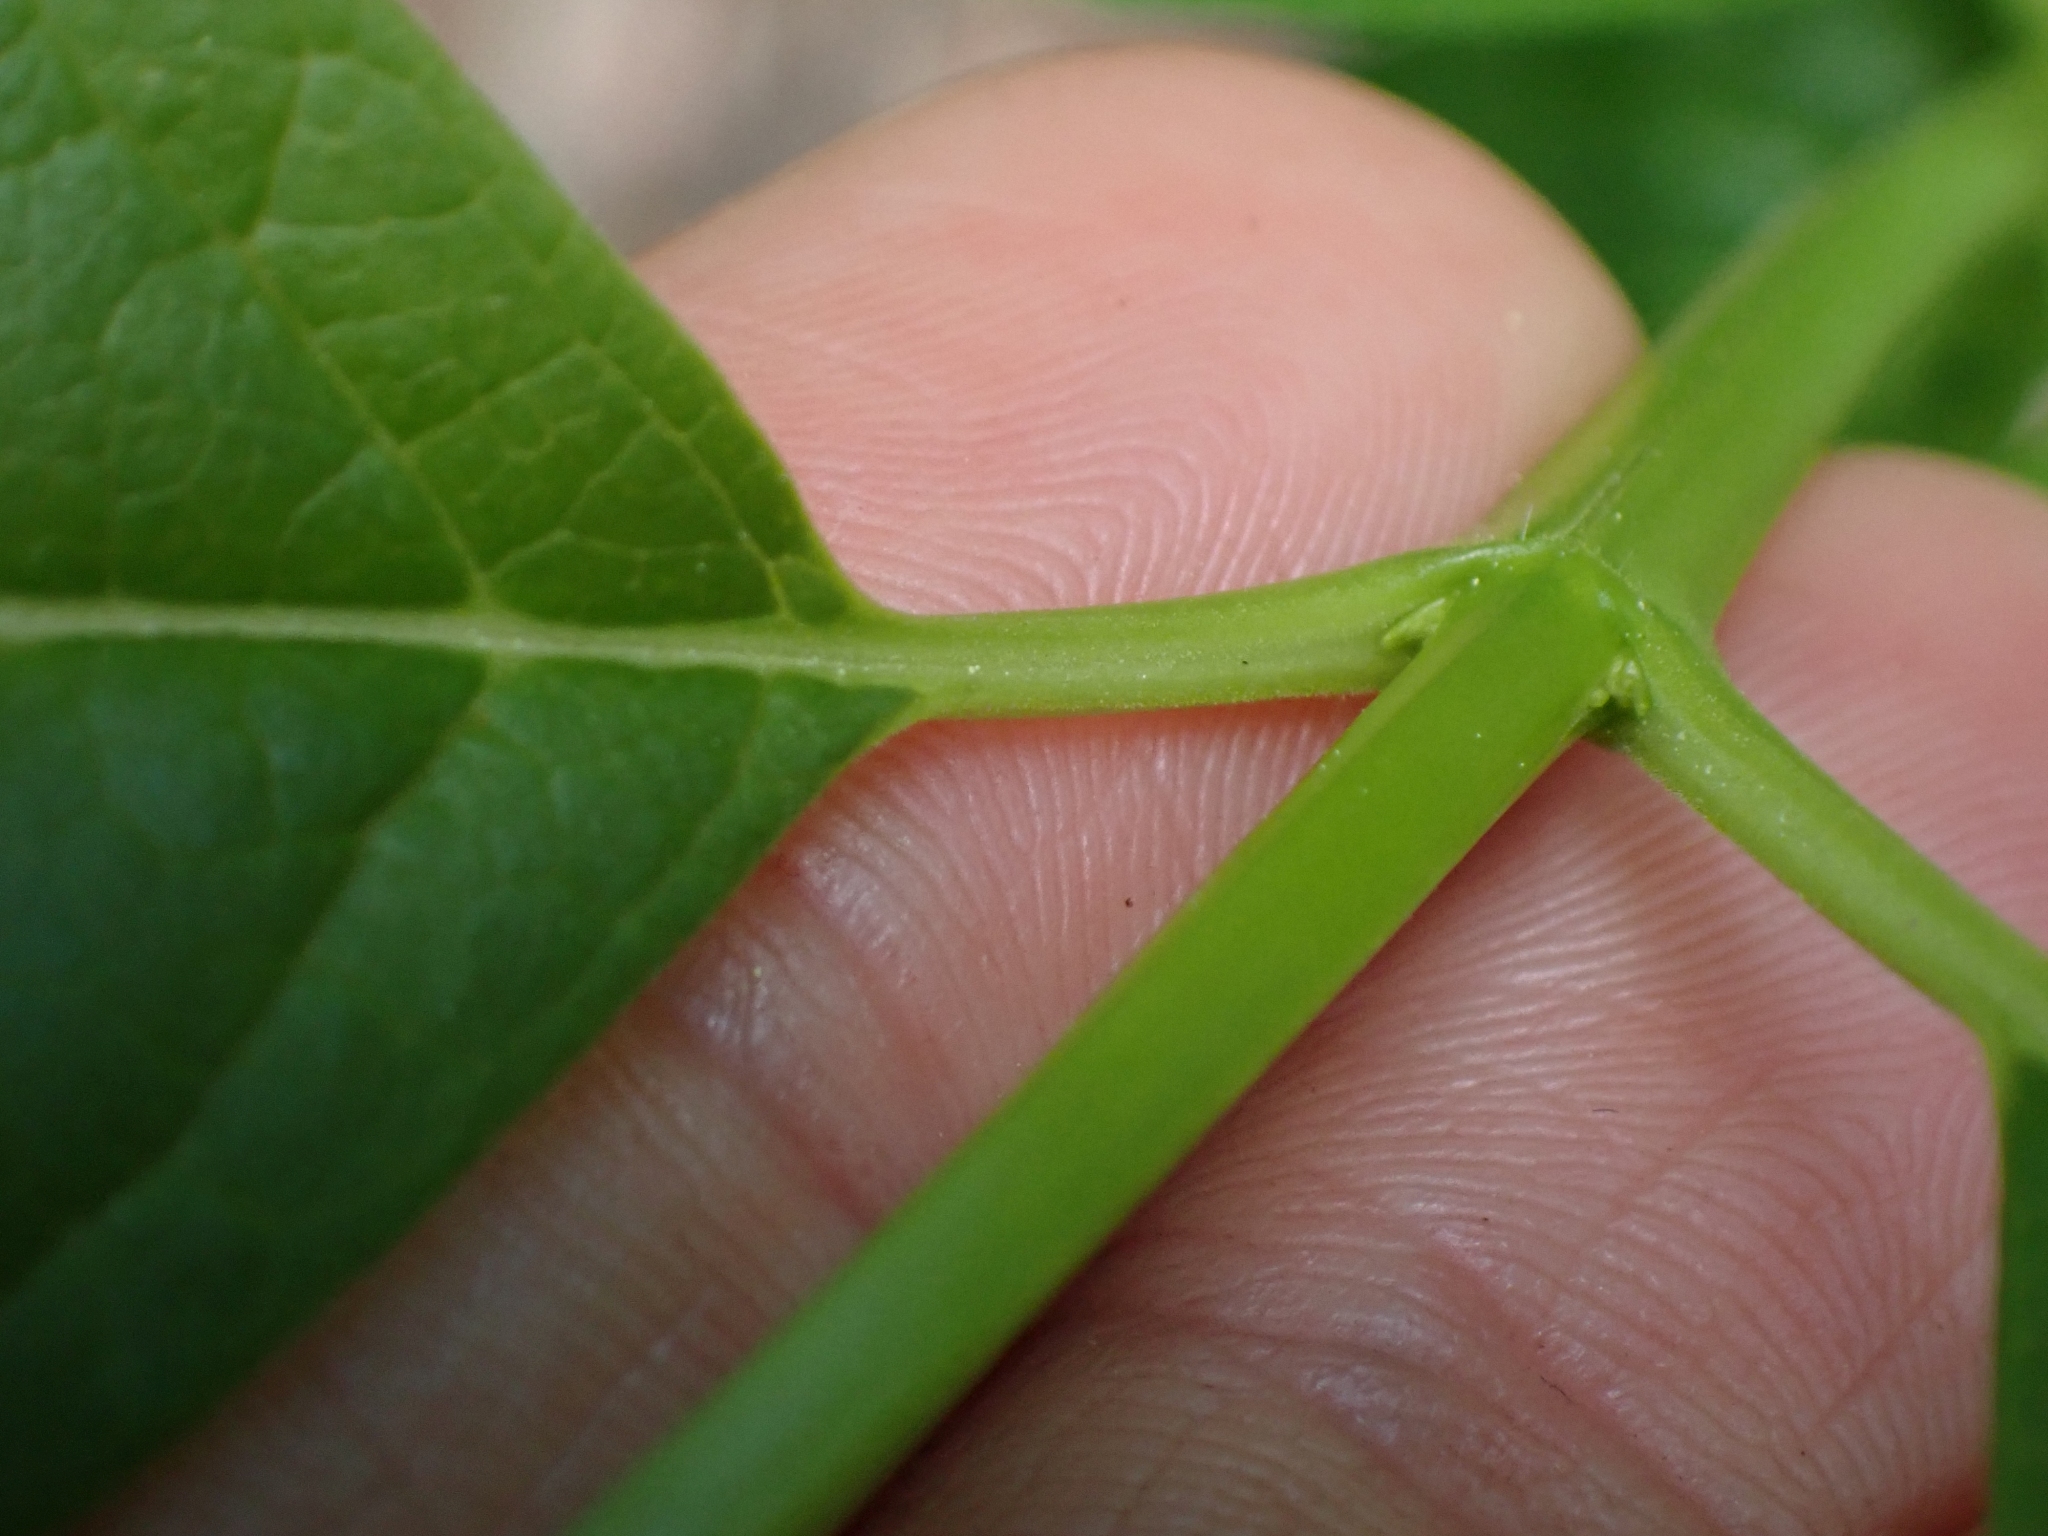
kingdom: Plantae
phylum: Tracheophyta
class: Magnoliopsida
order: Dipsacales
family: Caprifoliaceae
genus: Lonicera
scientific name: Lonicera involucrata
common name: Californian honeysuckle
